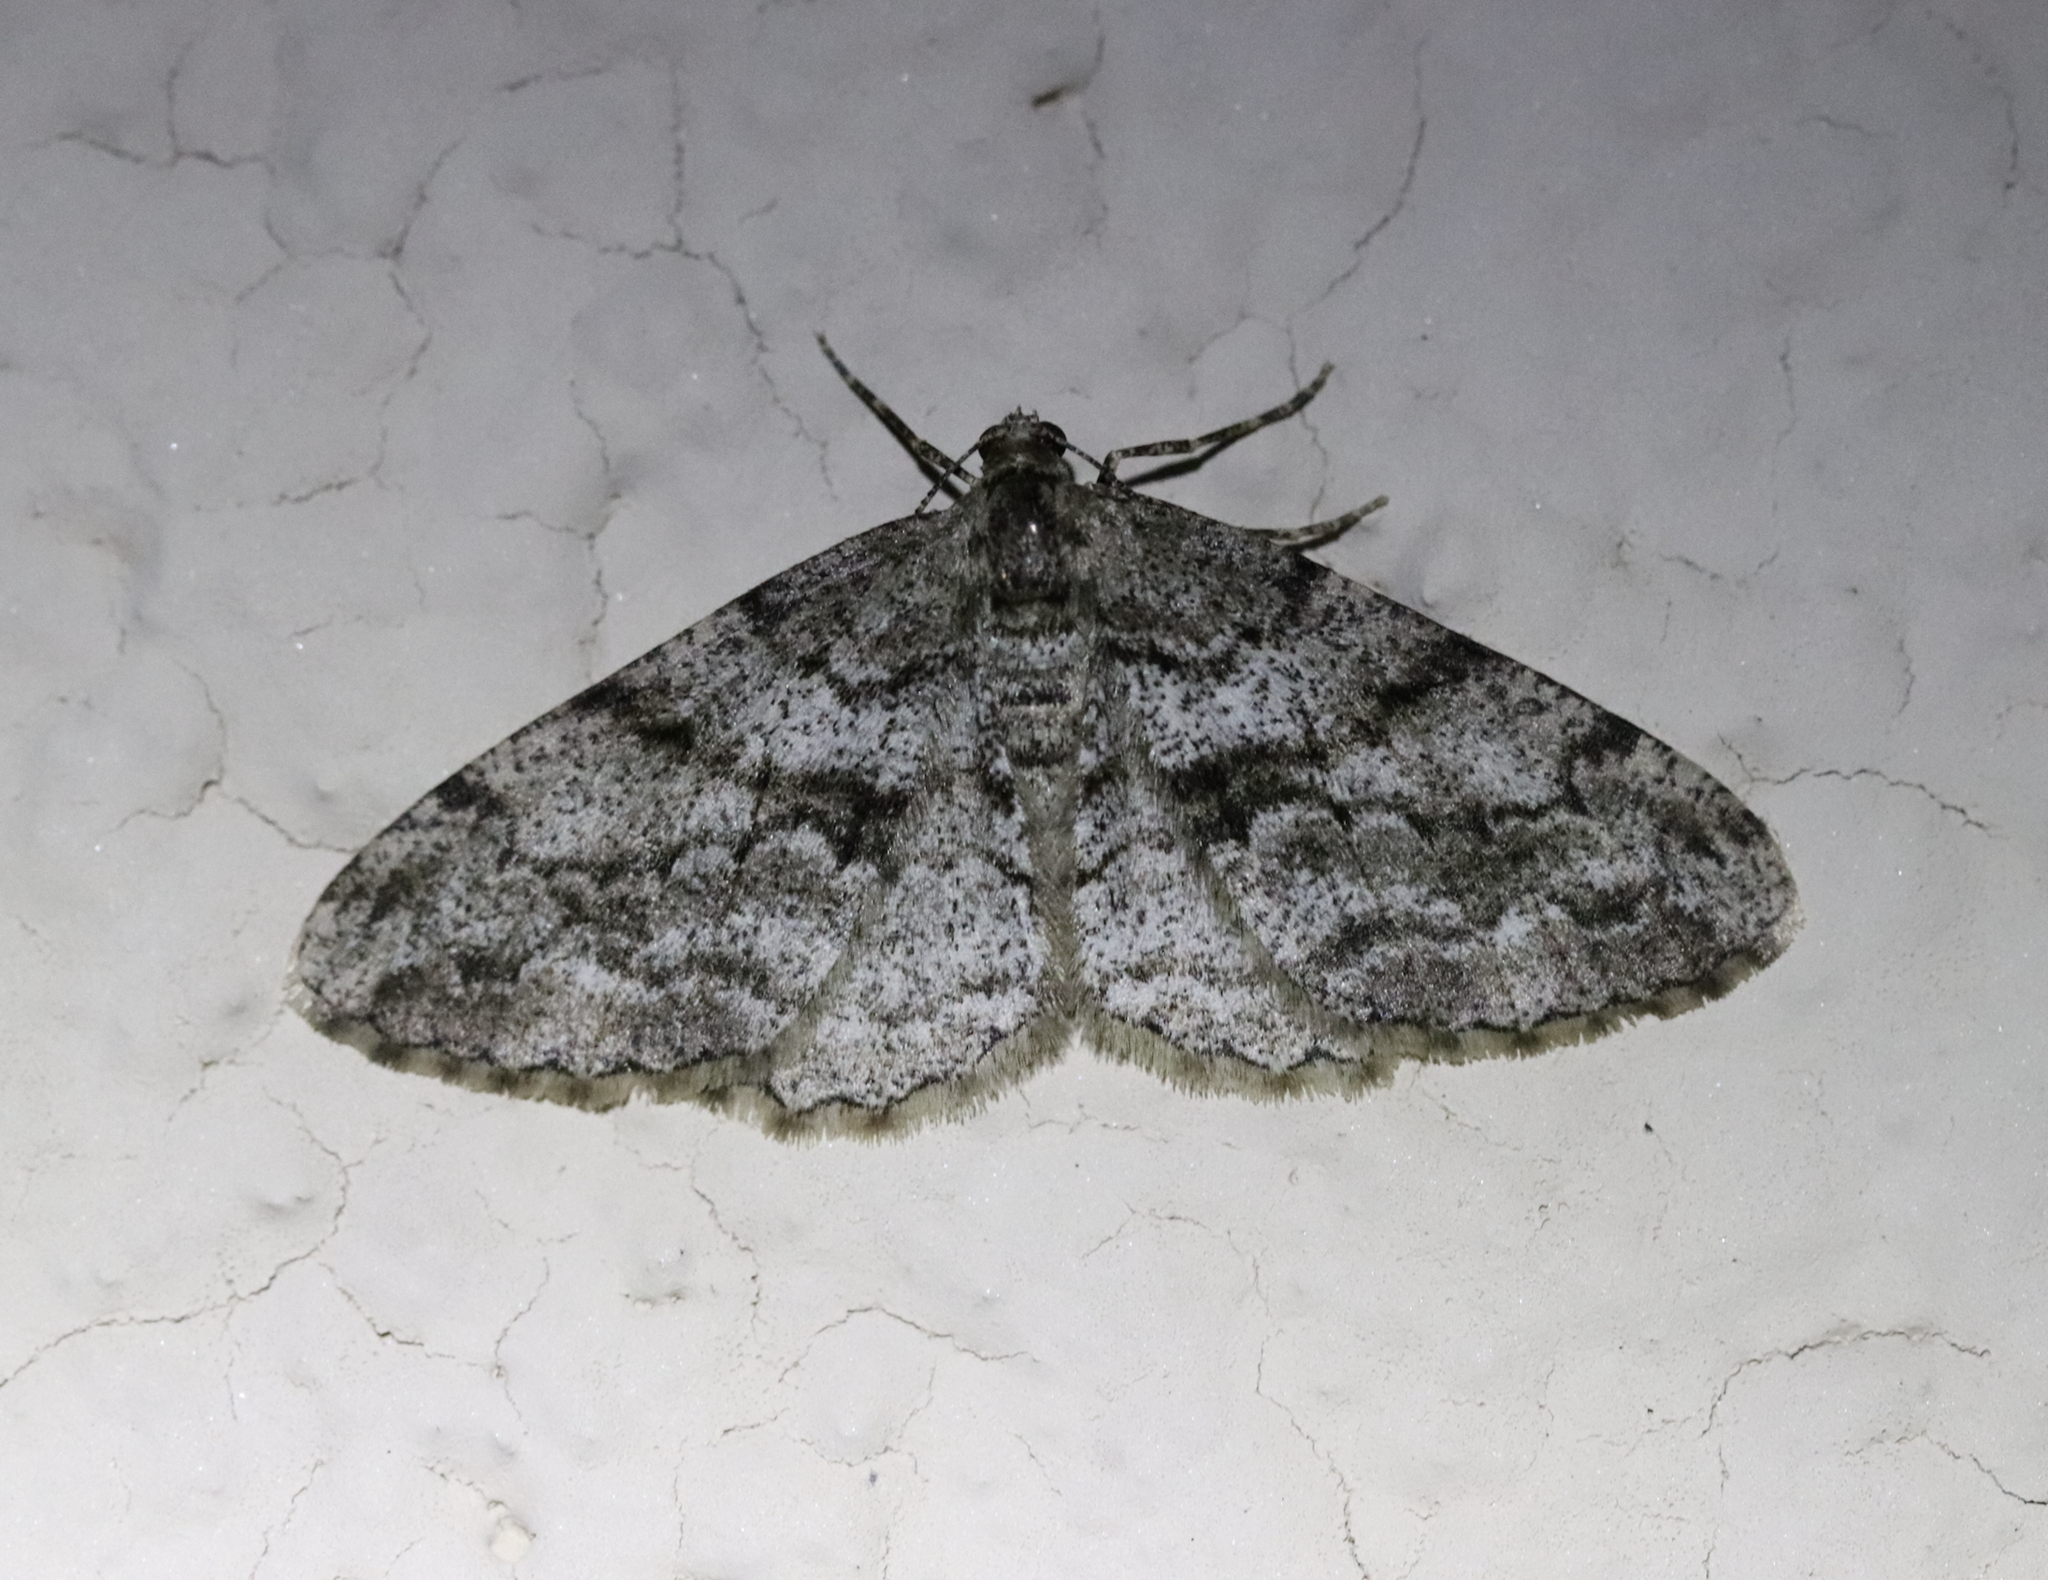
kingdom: Animalia
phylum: Arthropoda
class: Insecta
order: Lepidoptera
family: Geometridae
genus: Peribatodes
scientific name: Peribatodes secundaria
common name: Feathered beauty
